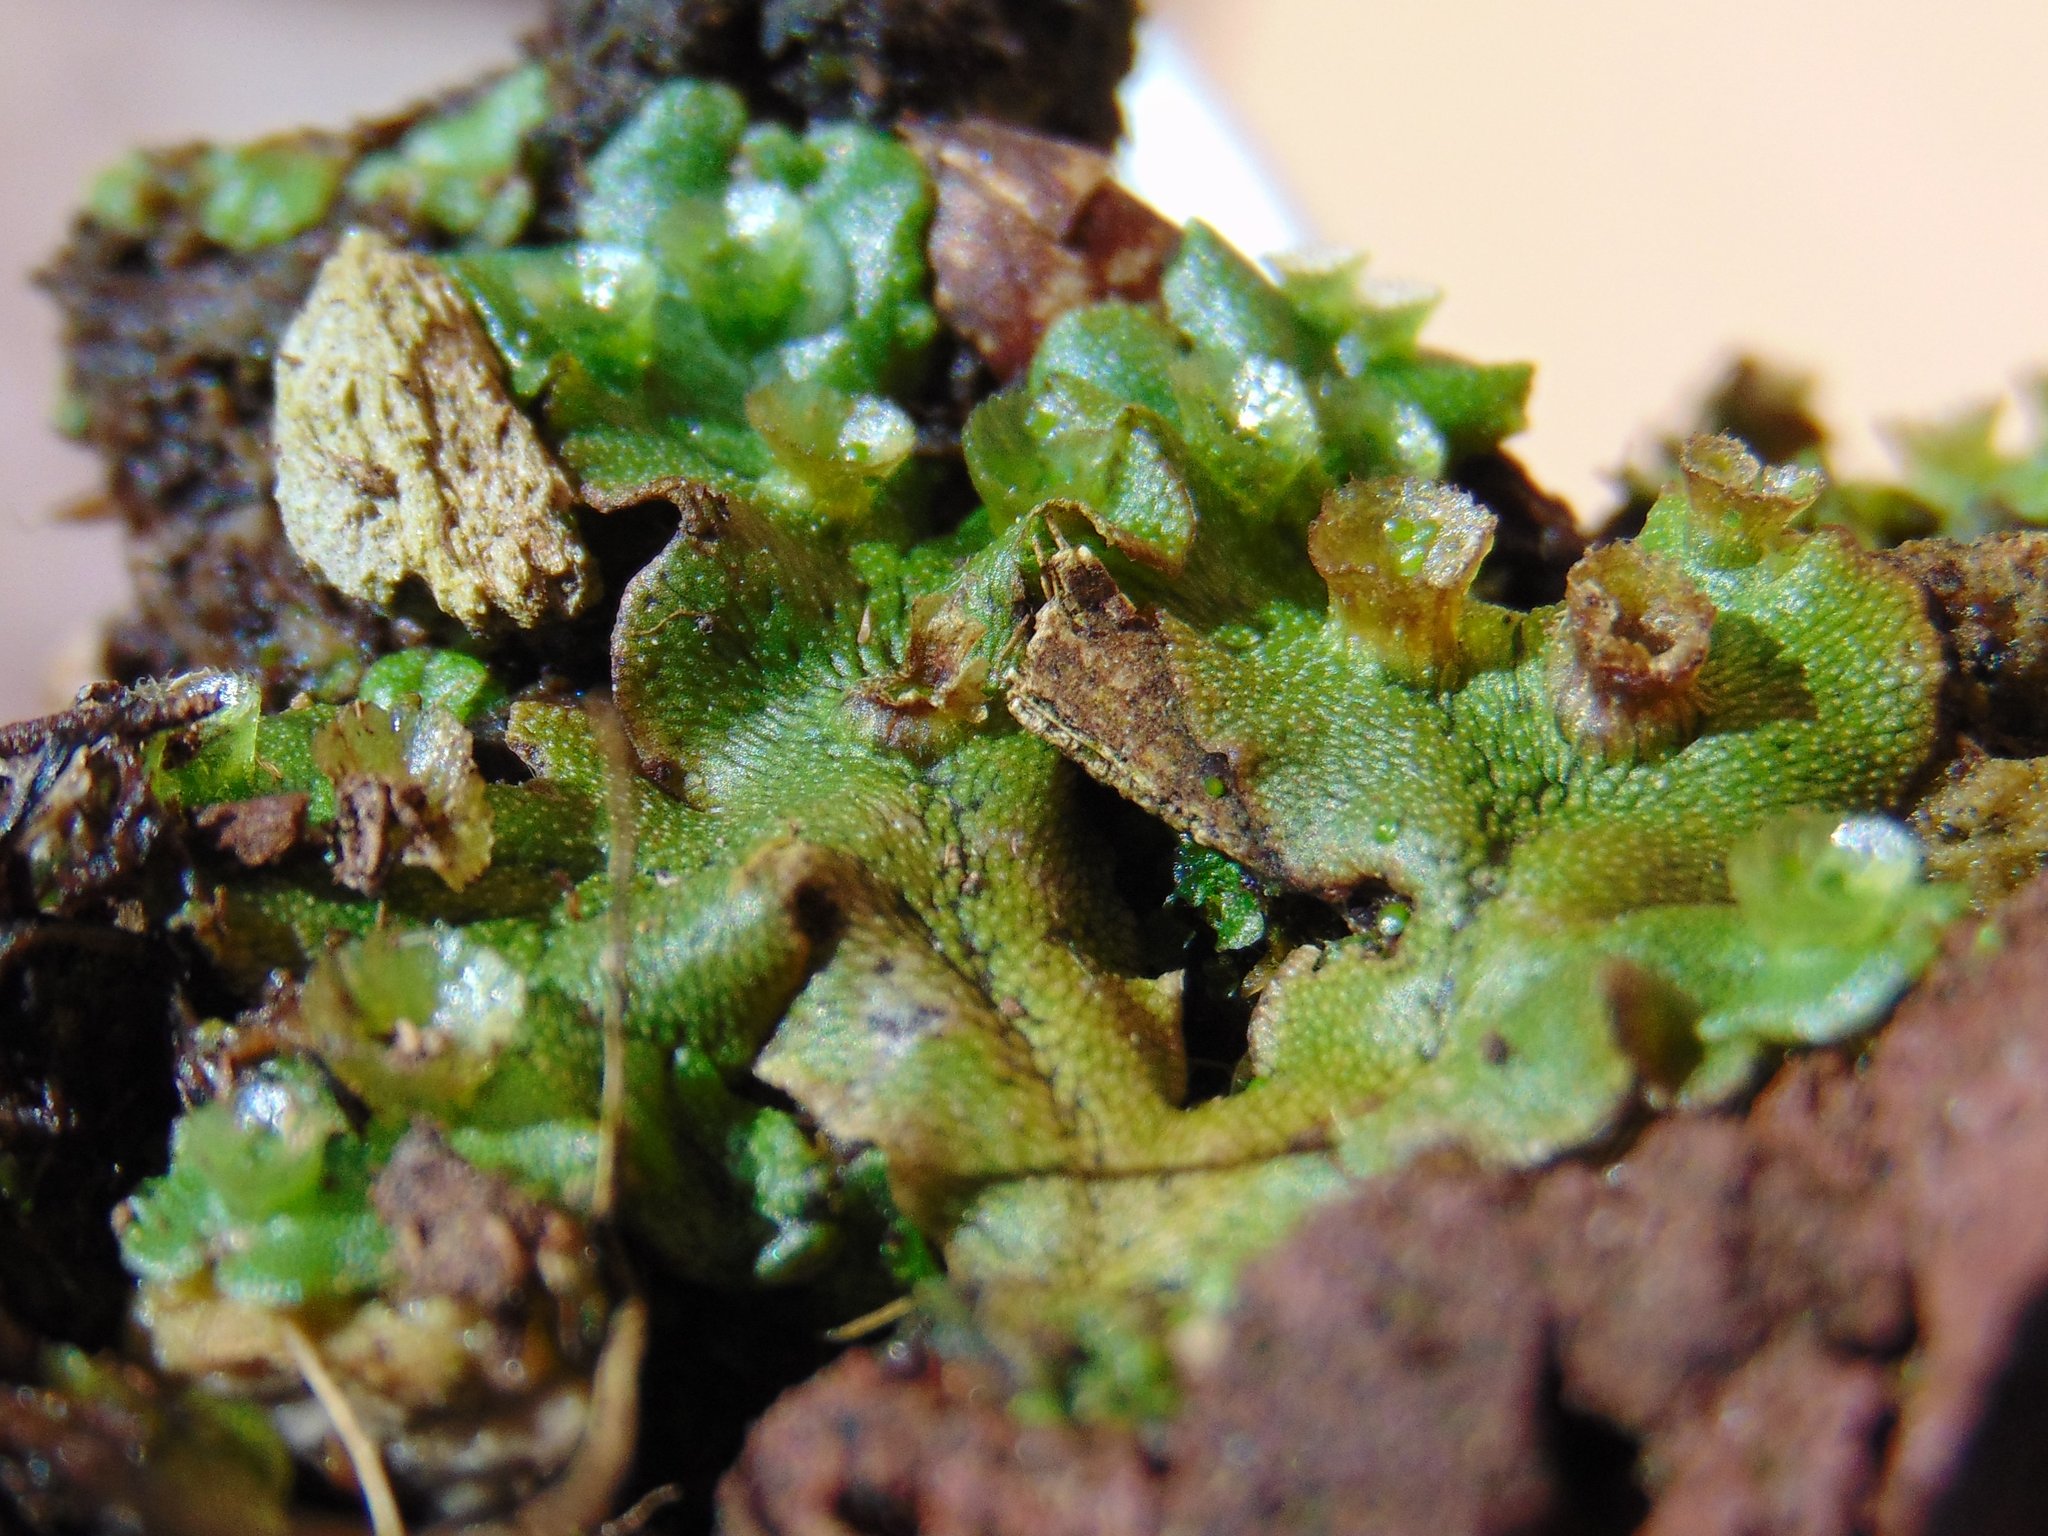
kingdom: Plantae
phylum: Marchantiophyta
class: Marchantiopsida
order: Marchantiales
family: Marchantiaceae
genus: Marchantia
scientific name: Marchantia polymorpha
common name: Common liverwort
